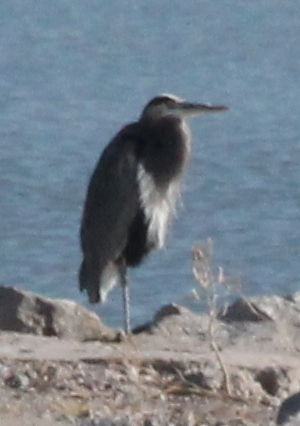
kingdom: Animalia
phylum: Chordata
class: Aves
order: Pelecaniformes
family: Ardeidae
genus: Ardea
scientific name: Ardea herodias
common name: Great blue heron
